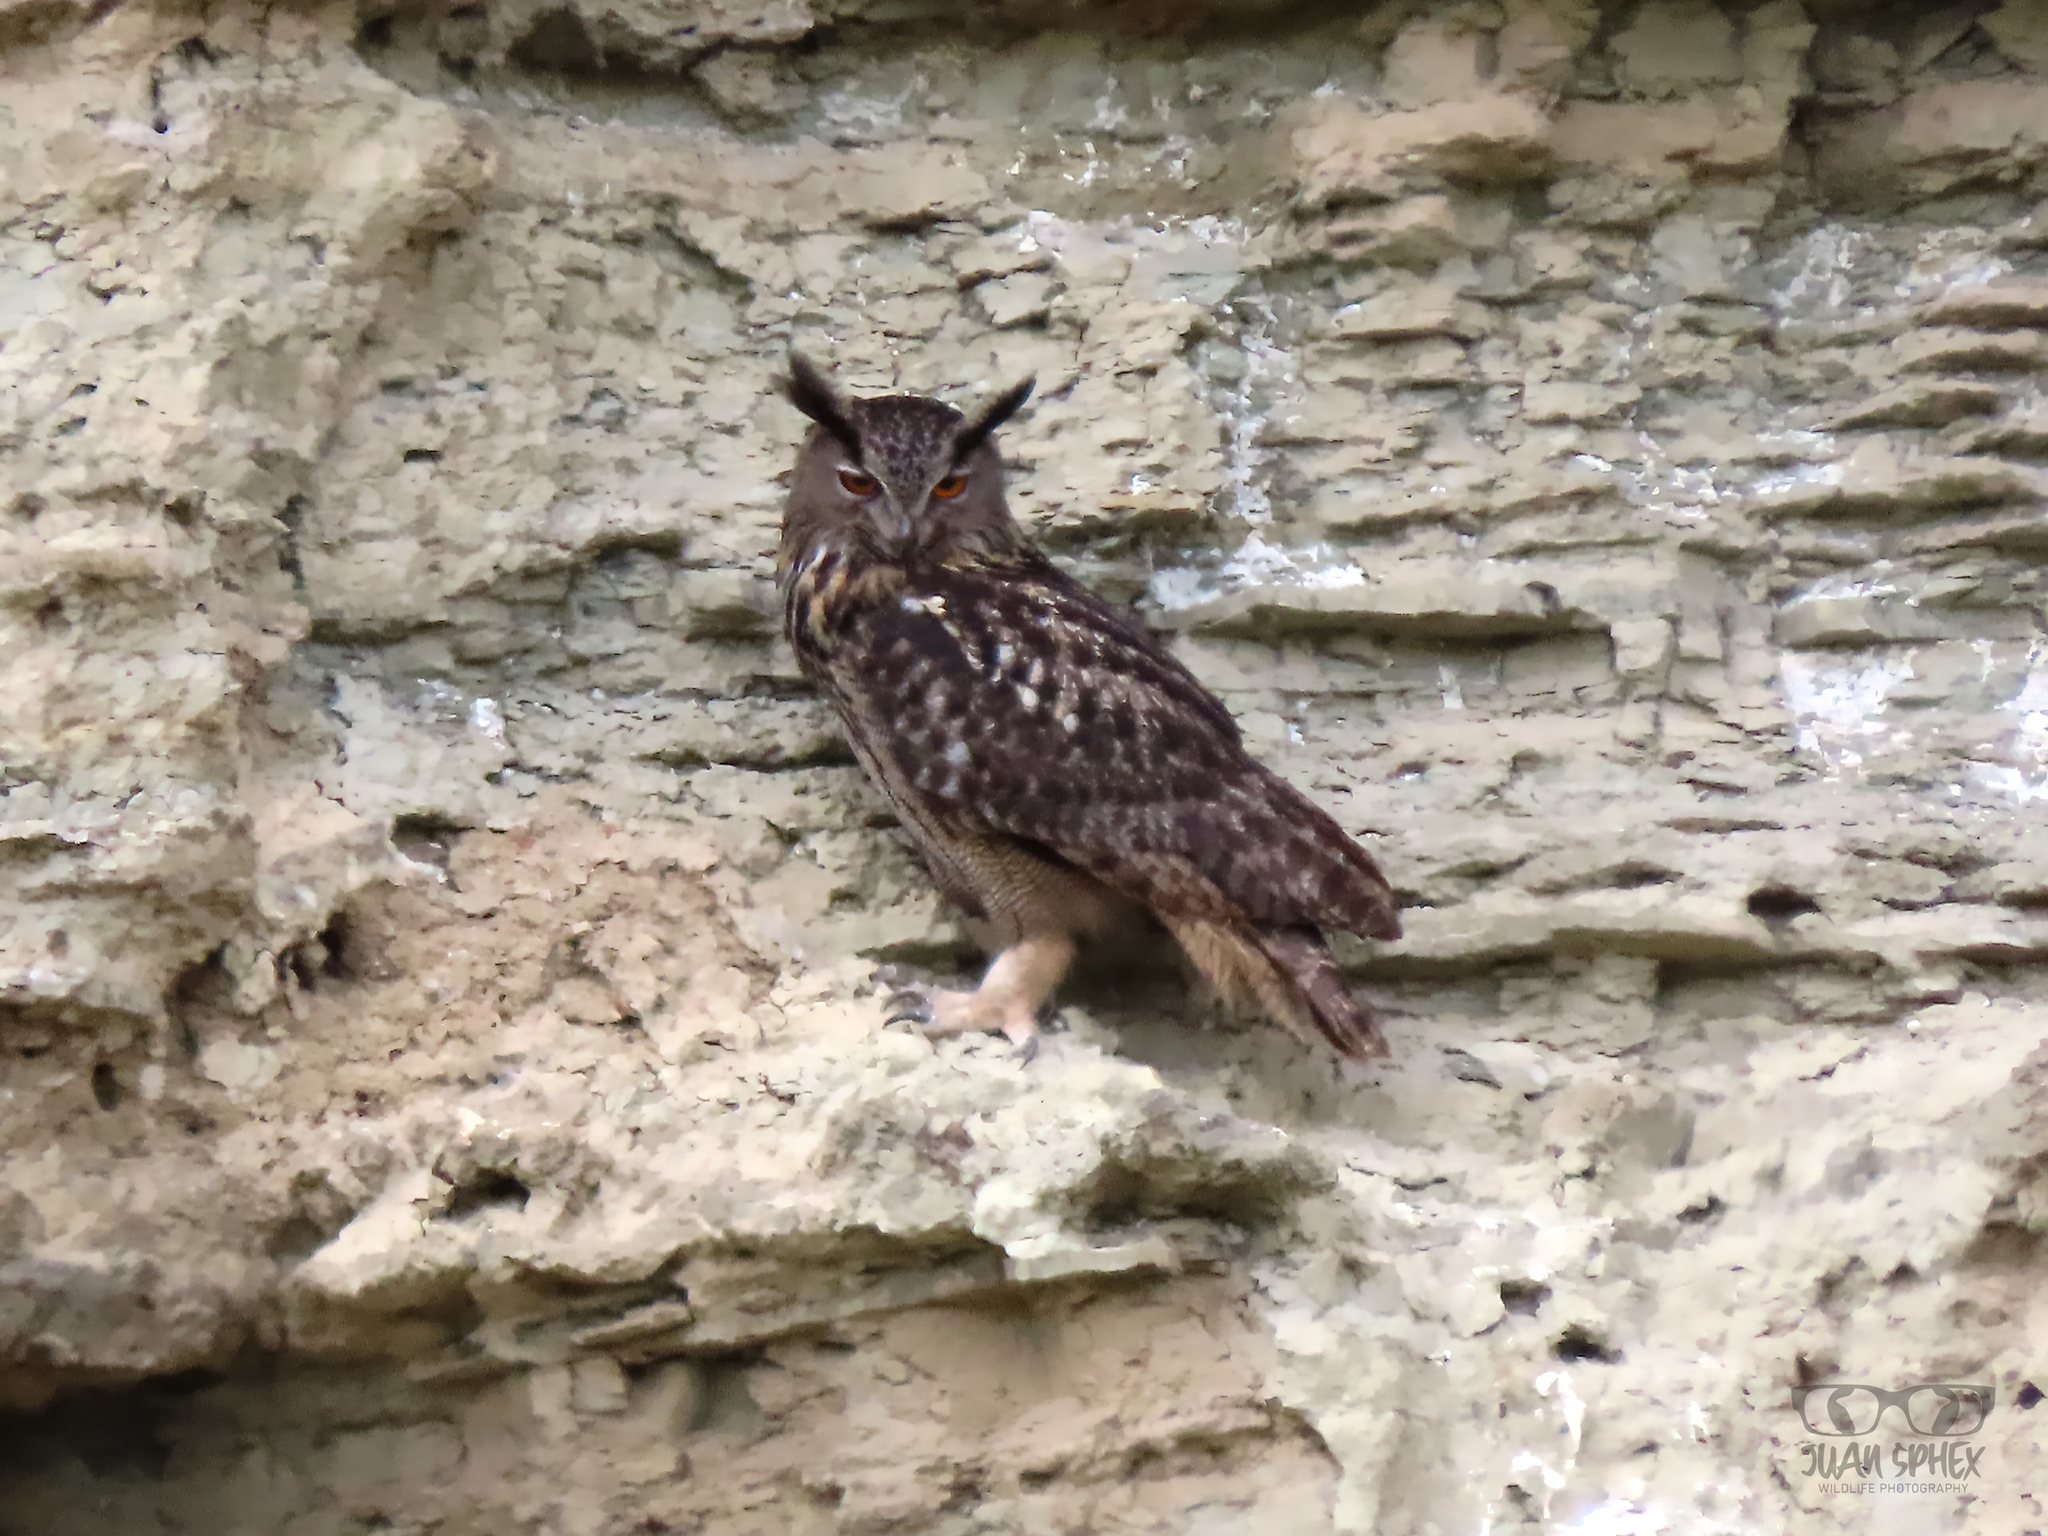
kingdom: Animalia
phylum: Chordata
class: Aves
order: Strigiformes
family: Strigidae
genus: Bubo
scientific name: Bubo bubo
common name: Eurasian eagle-owl
